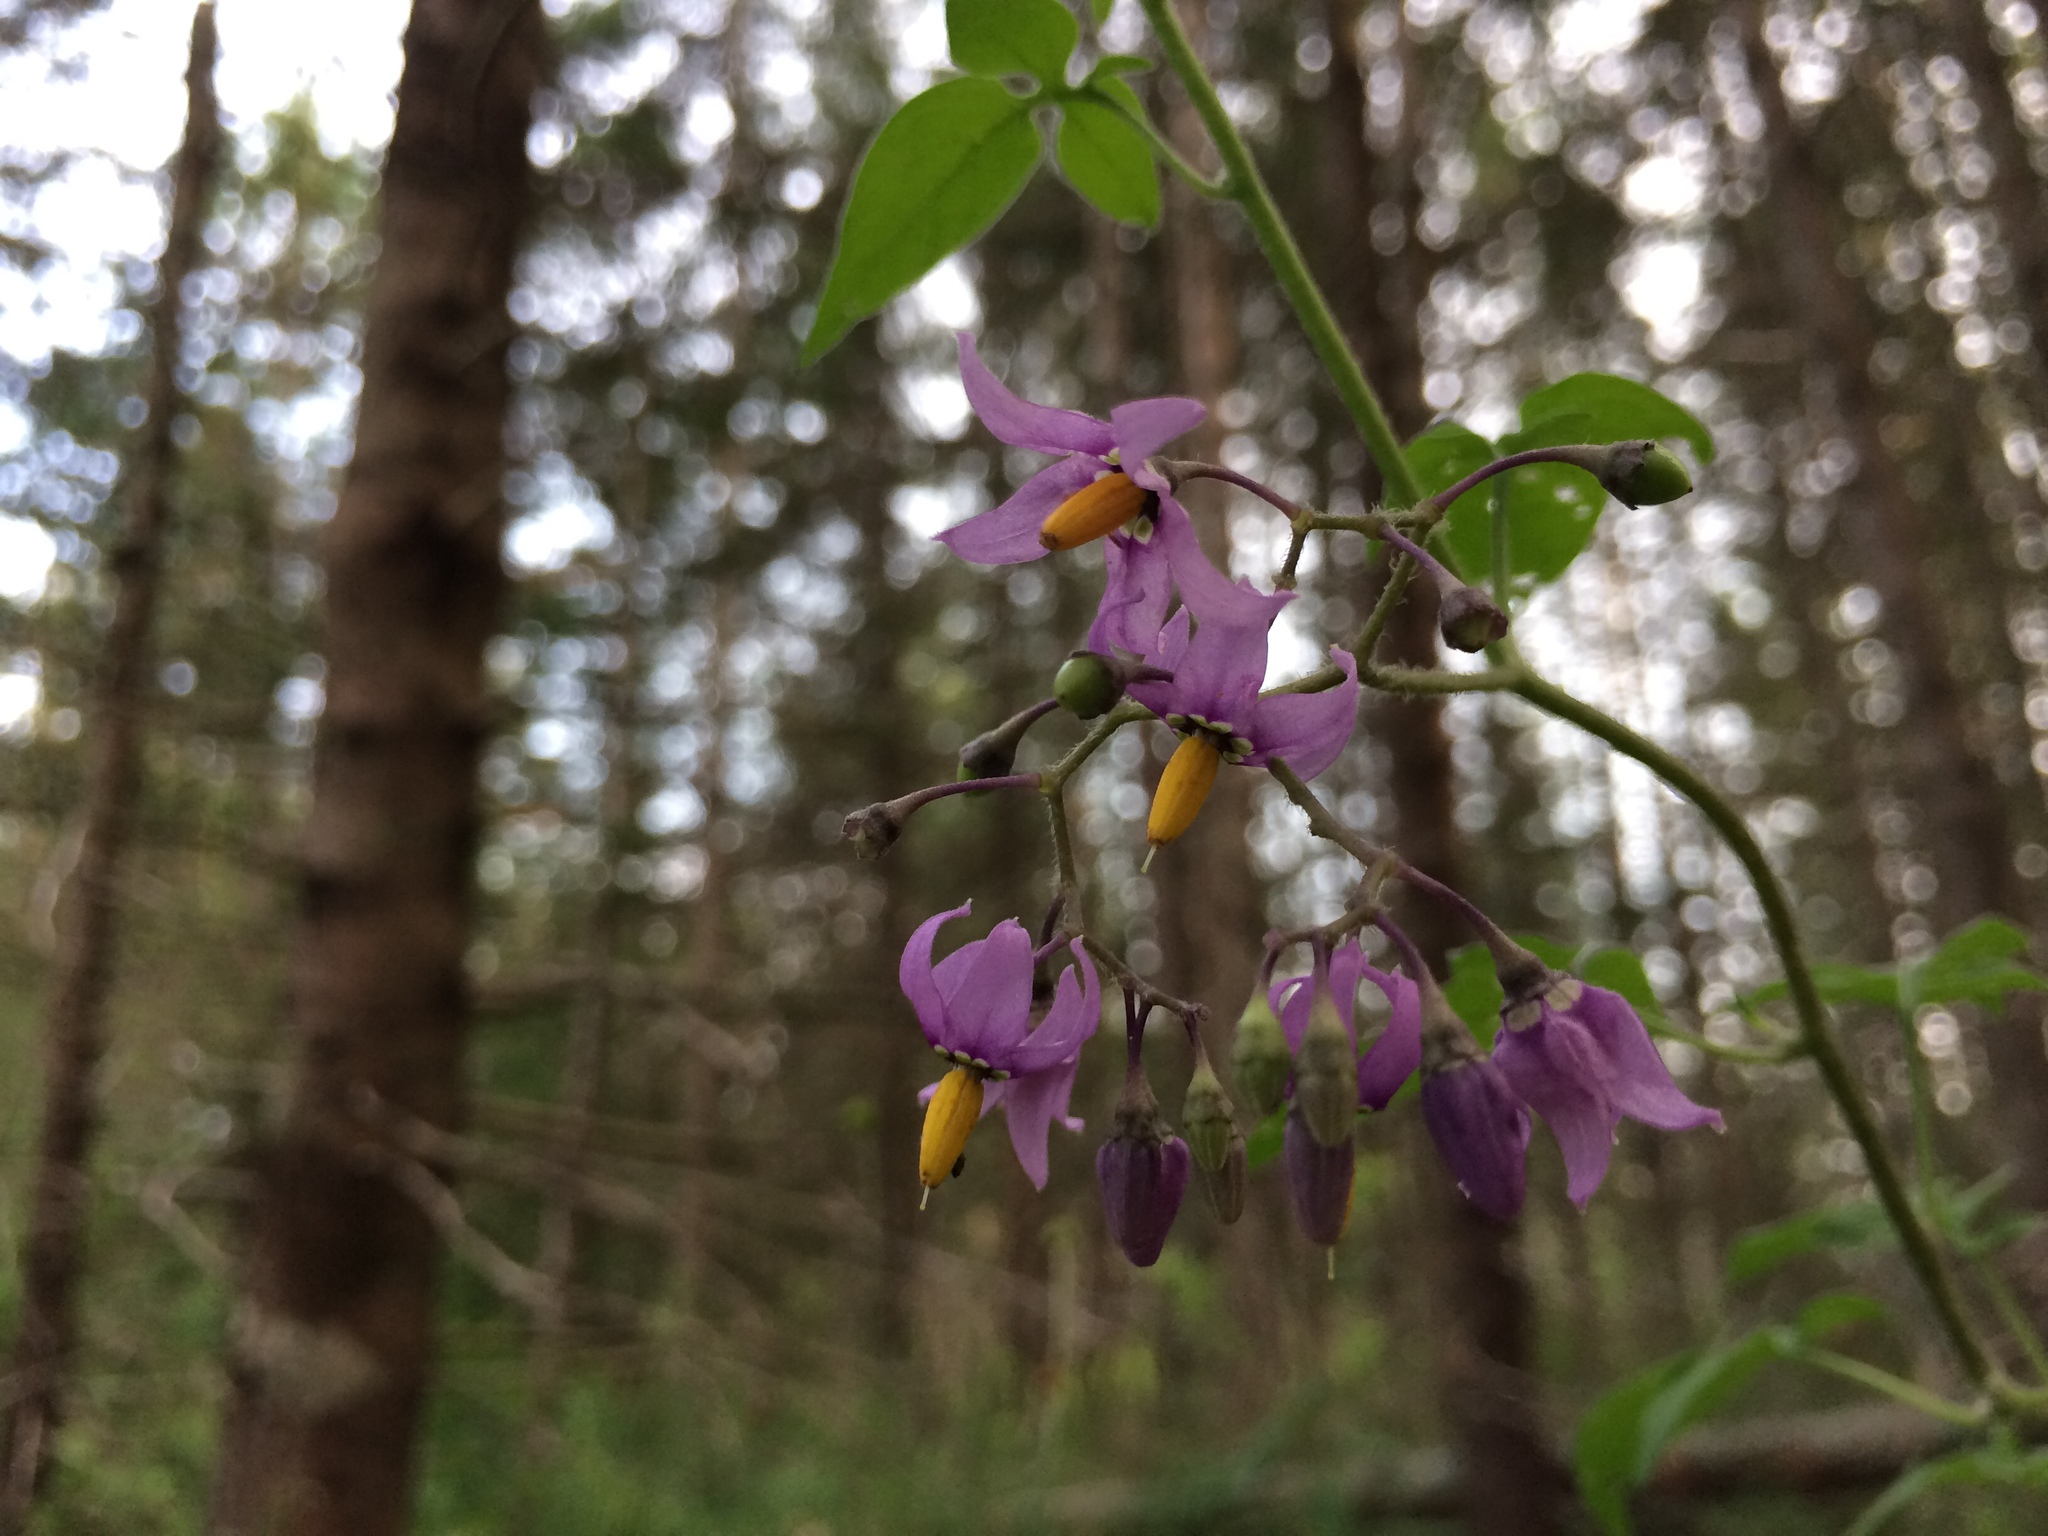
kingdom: Plantae
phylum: Tracheophyta
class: Magnoliopsida
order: Solanales
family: Solanaceae
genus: Solanum
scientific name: Solanum dulcamara
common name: Climbing nightshade
